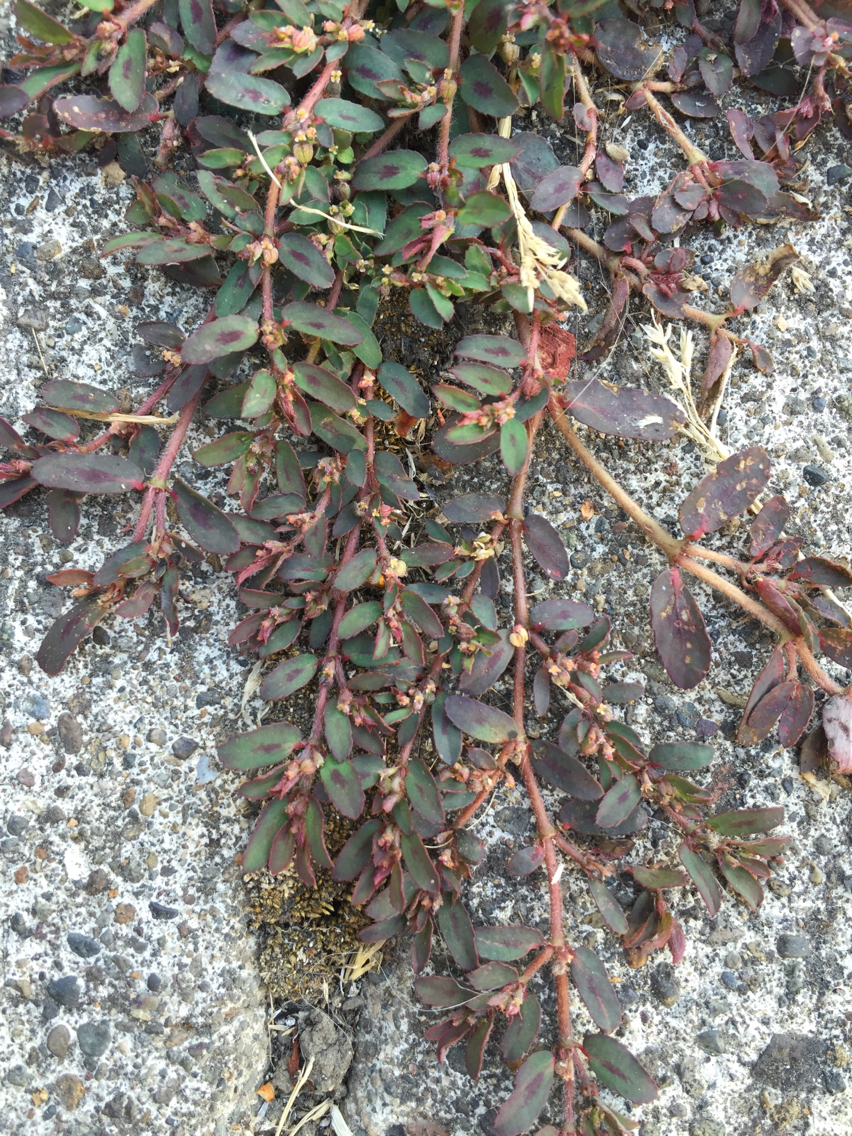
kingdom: Plantae
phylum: Tracheophyta
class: Magnoliopsida
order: Malpighiales
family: Euphorbiaceae
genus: Euphorbia
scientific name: Euphorbia maculata
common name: Spotted spurge
